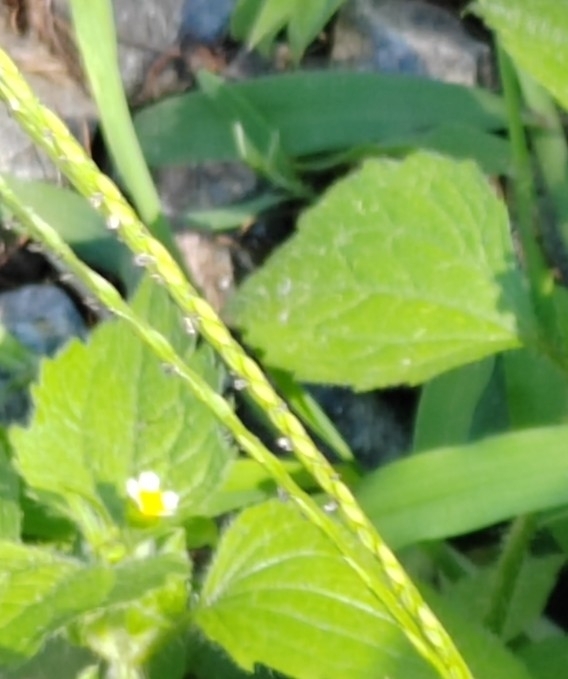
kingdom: Plantae
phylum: Tracheophyta
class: Liliopsida
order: Poales
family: Poaceae
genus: Digitaria
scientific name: Digitaria sanguinalis
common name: Hairy crabgrass
